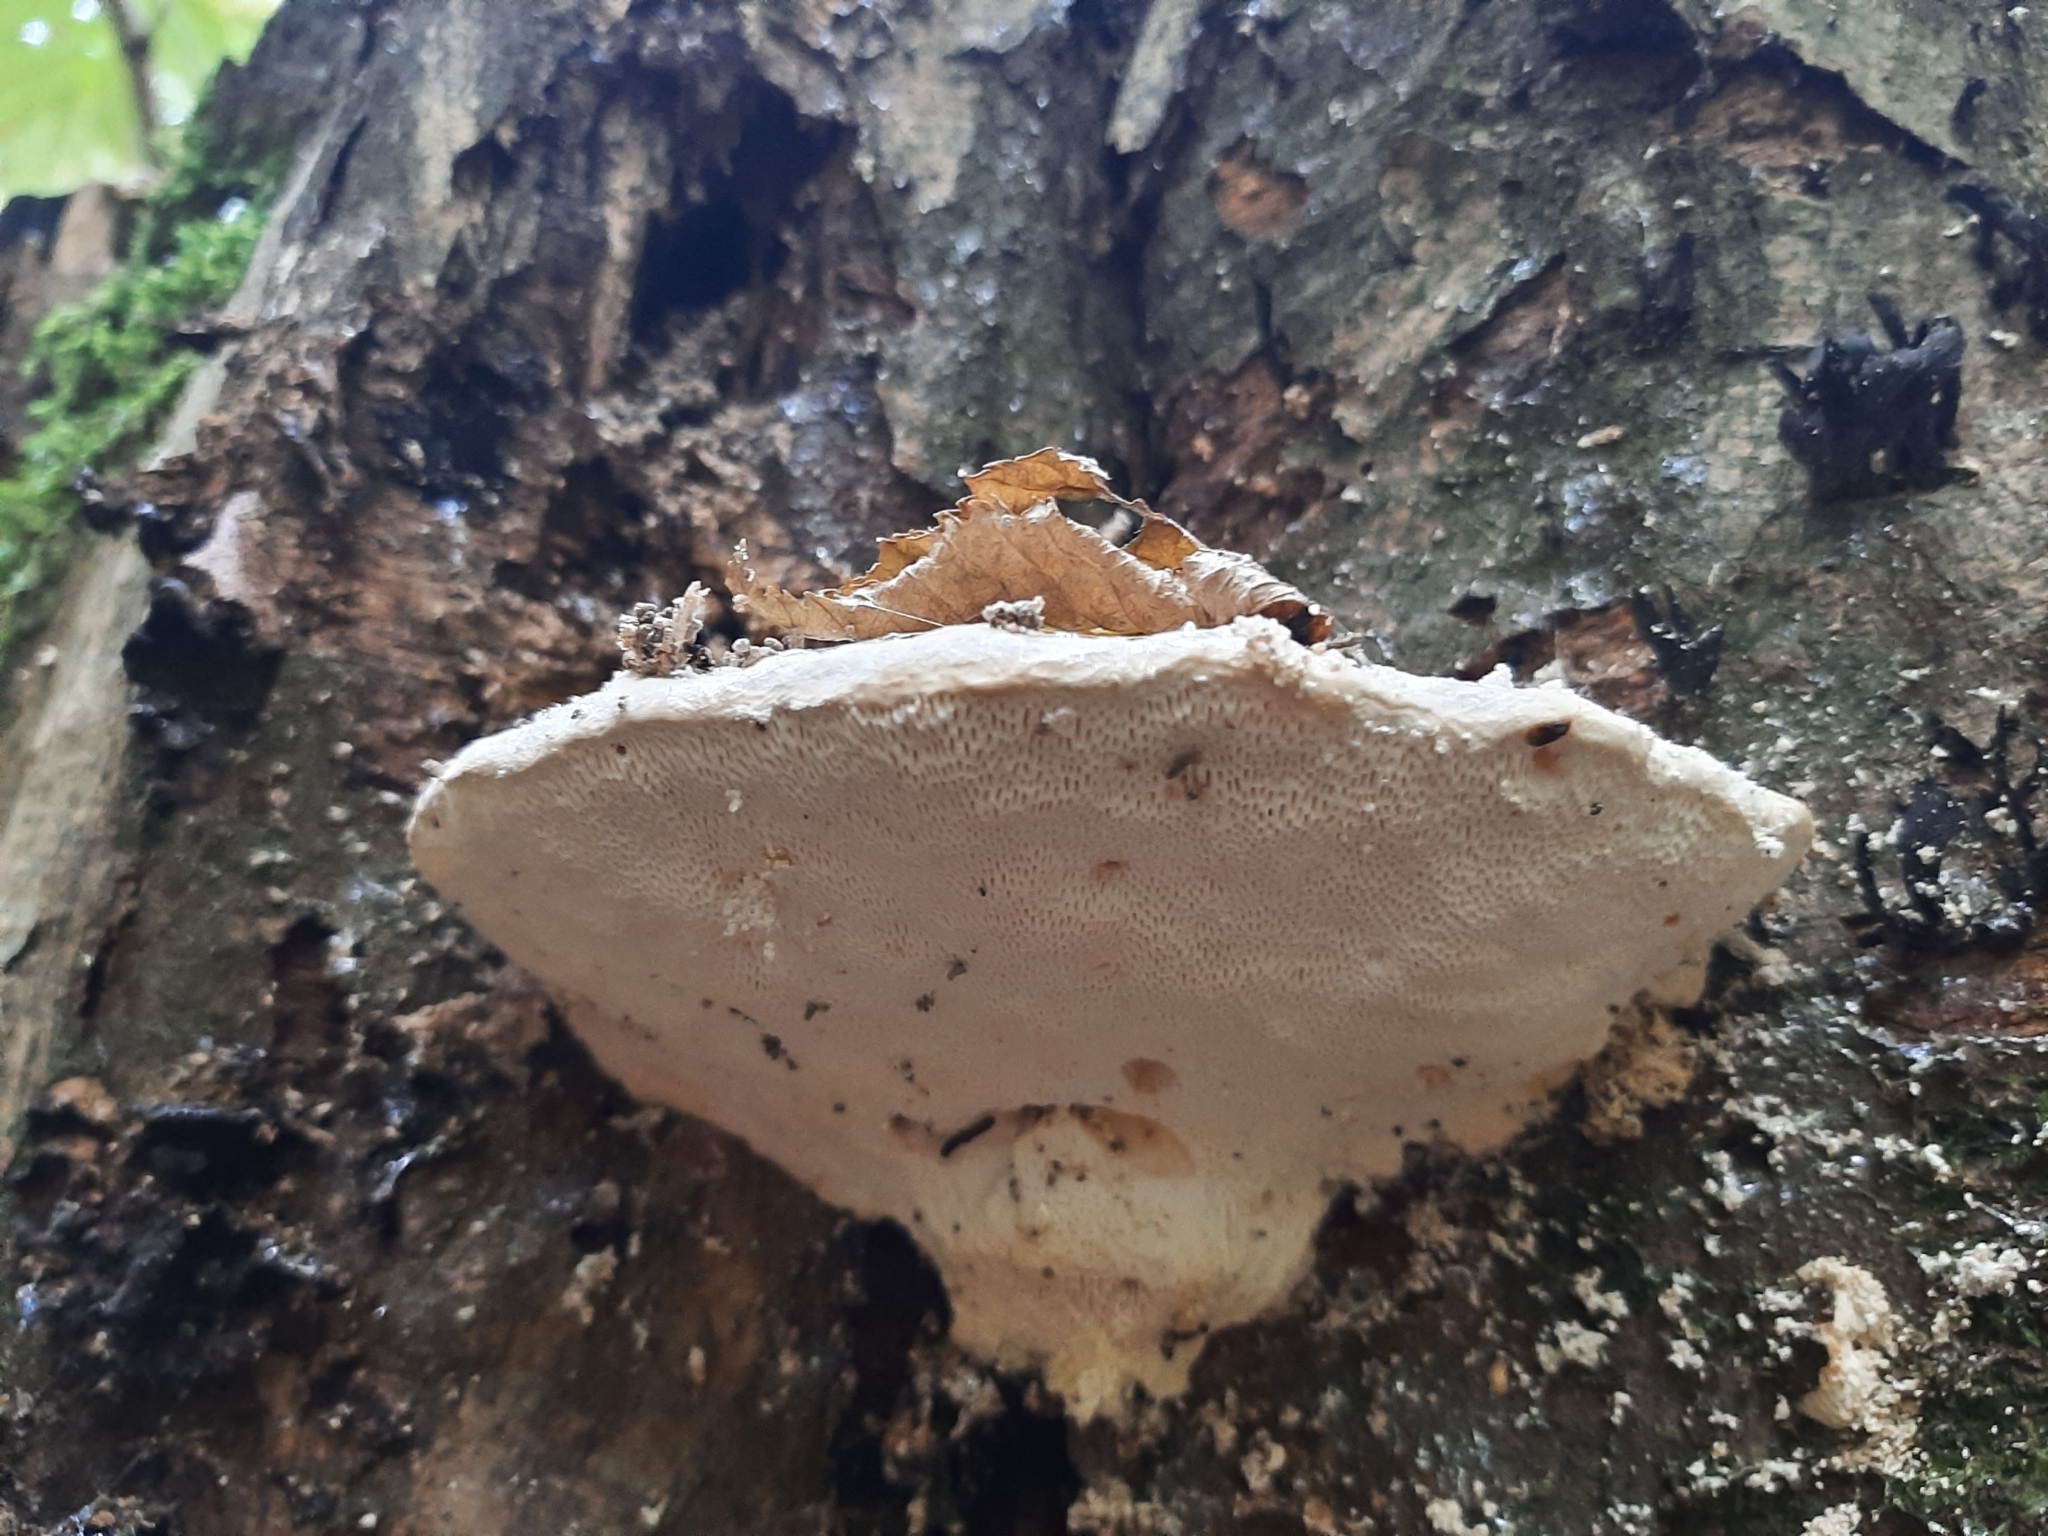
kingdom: Fungi
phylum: Basidiomycota
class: Agaricomycetes
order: Polyporales
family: Polyporaceae
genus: Trametes
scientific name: Trametes gibbosa
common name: Lumpy bracket
